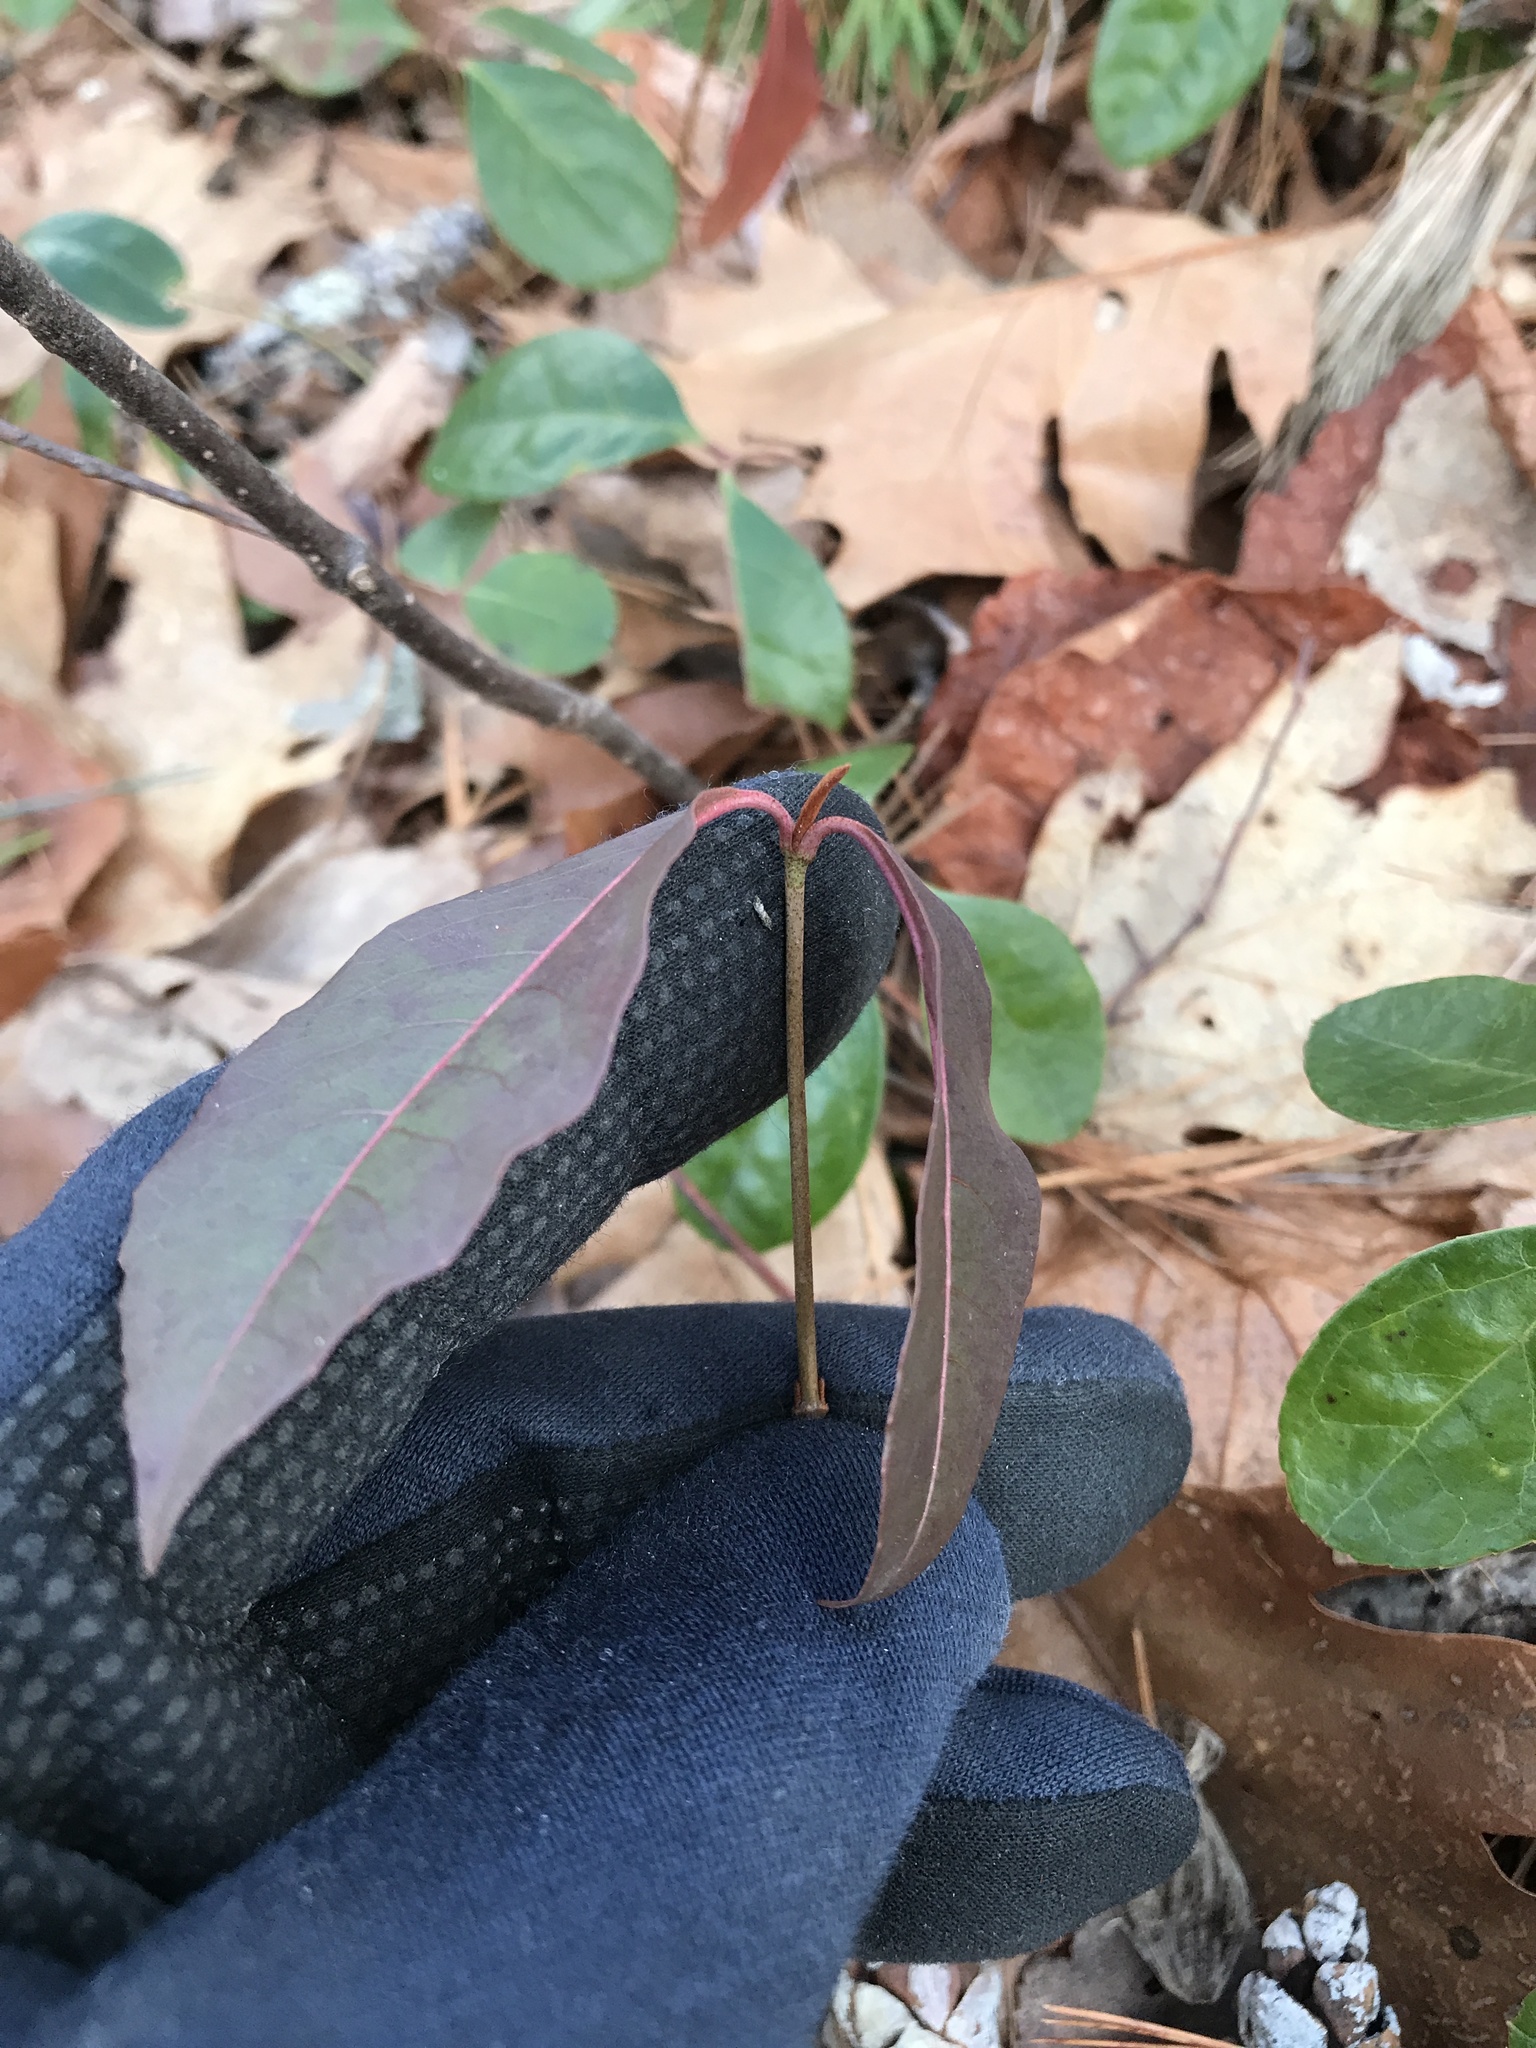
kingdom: Plantae
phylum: Tracheophyta
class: Magnoliopsida
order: Dipsacales
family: Viburnaceae
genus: Viburnum
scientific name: Viburnum cassinoides
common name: Swamp haw
